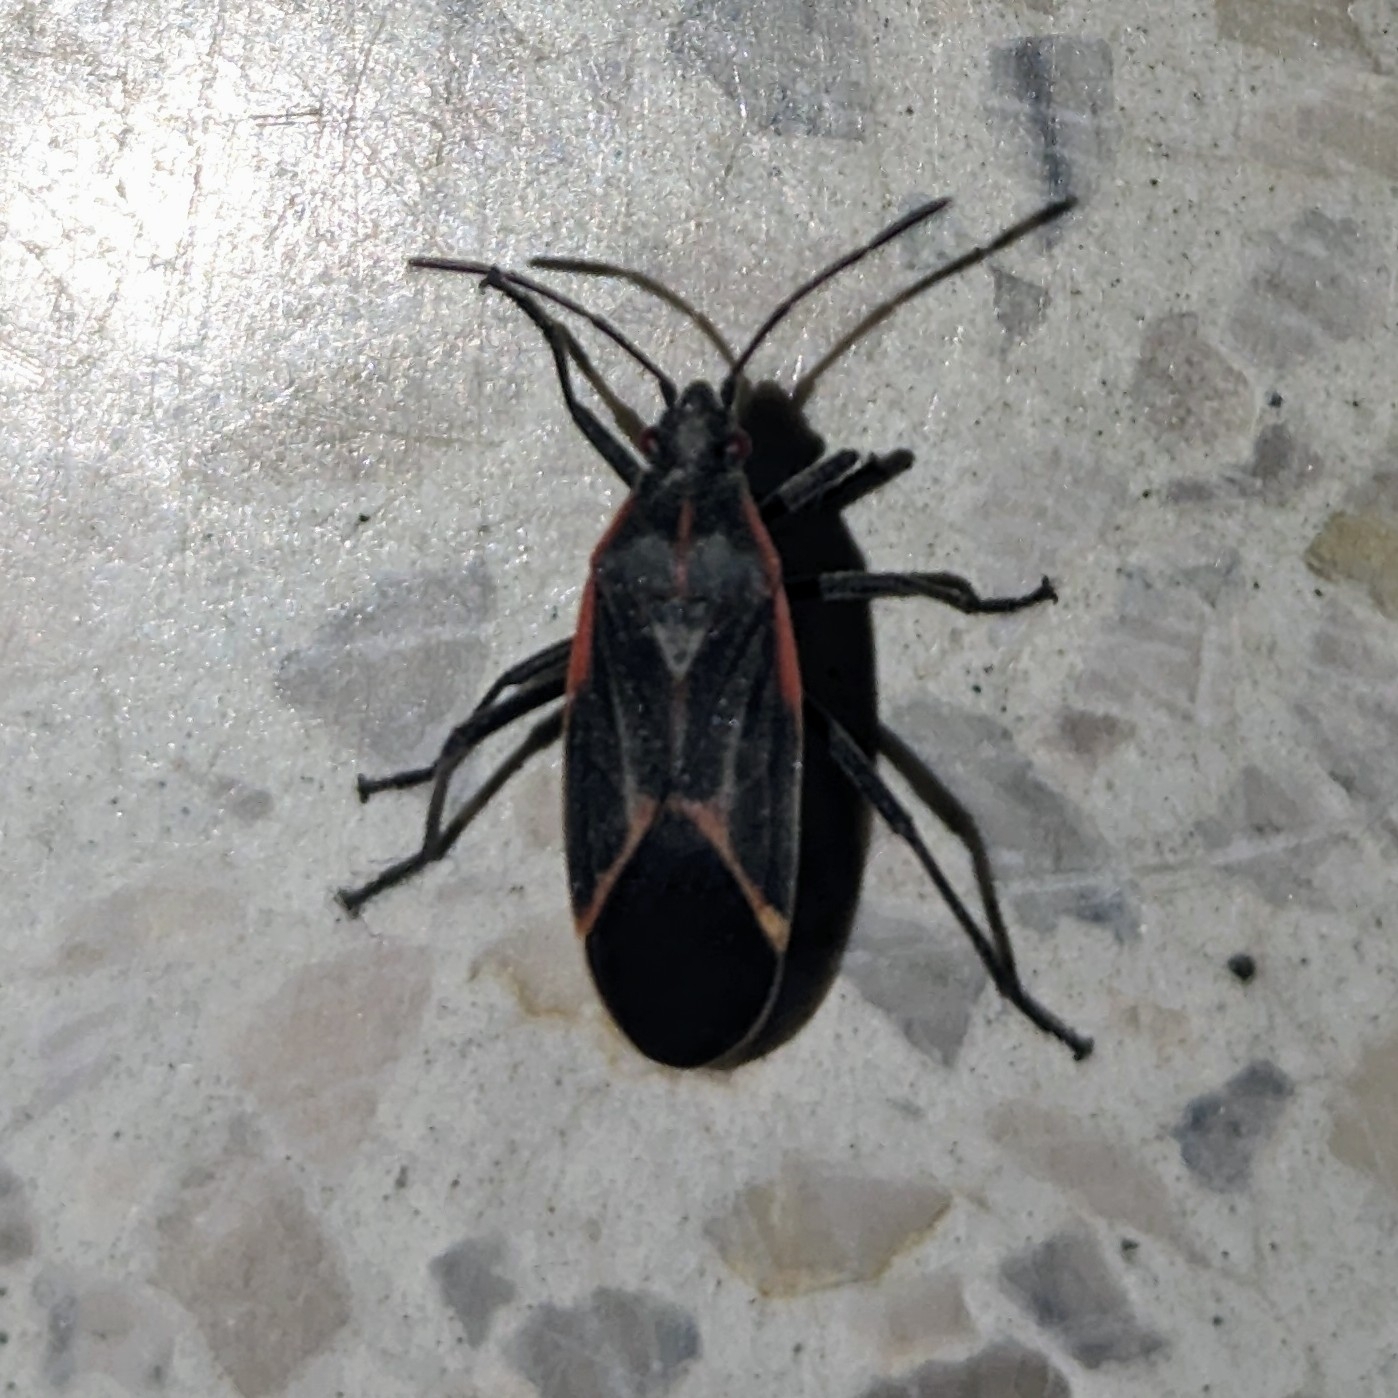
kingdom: Animalia
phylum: Arthropoda
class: Insecta
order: Hemiptera
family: Rhopalidae
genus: Boisea
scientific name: Boisea trivittata
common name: Boxelder bug
